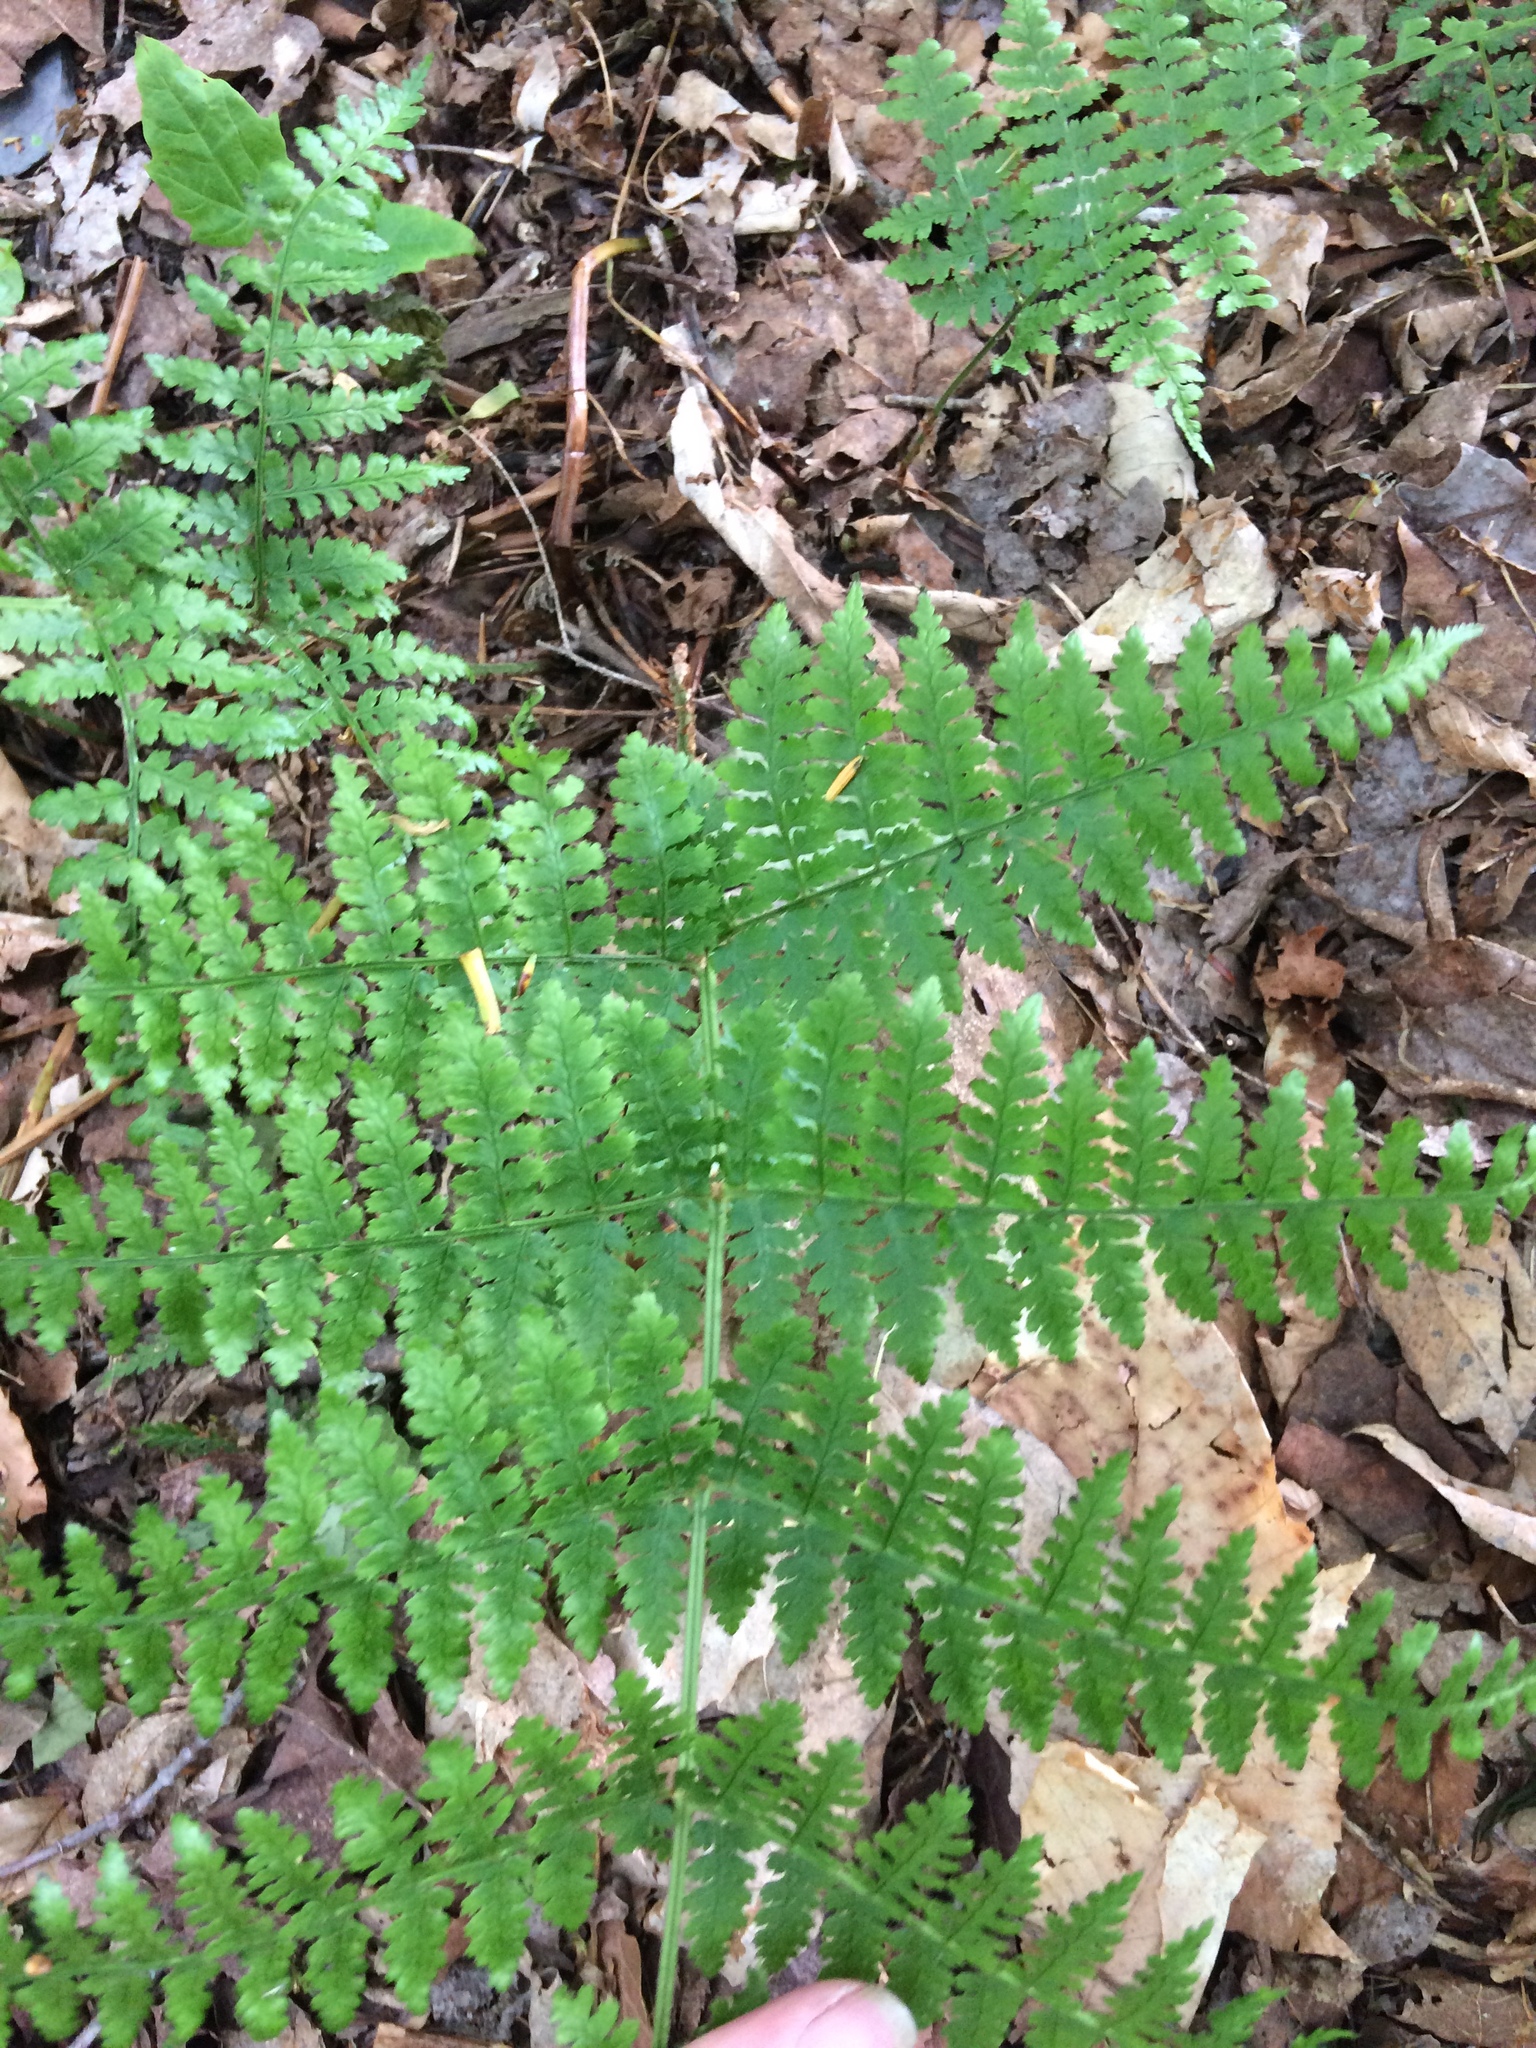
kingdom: Plantae
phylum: Tracheophyta
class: Polypodiopsida
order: Polypodiales
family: Dryopteridaceae
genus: Dryopteris
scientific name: Dryopteris intermedia
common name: Evergreen wood fern
